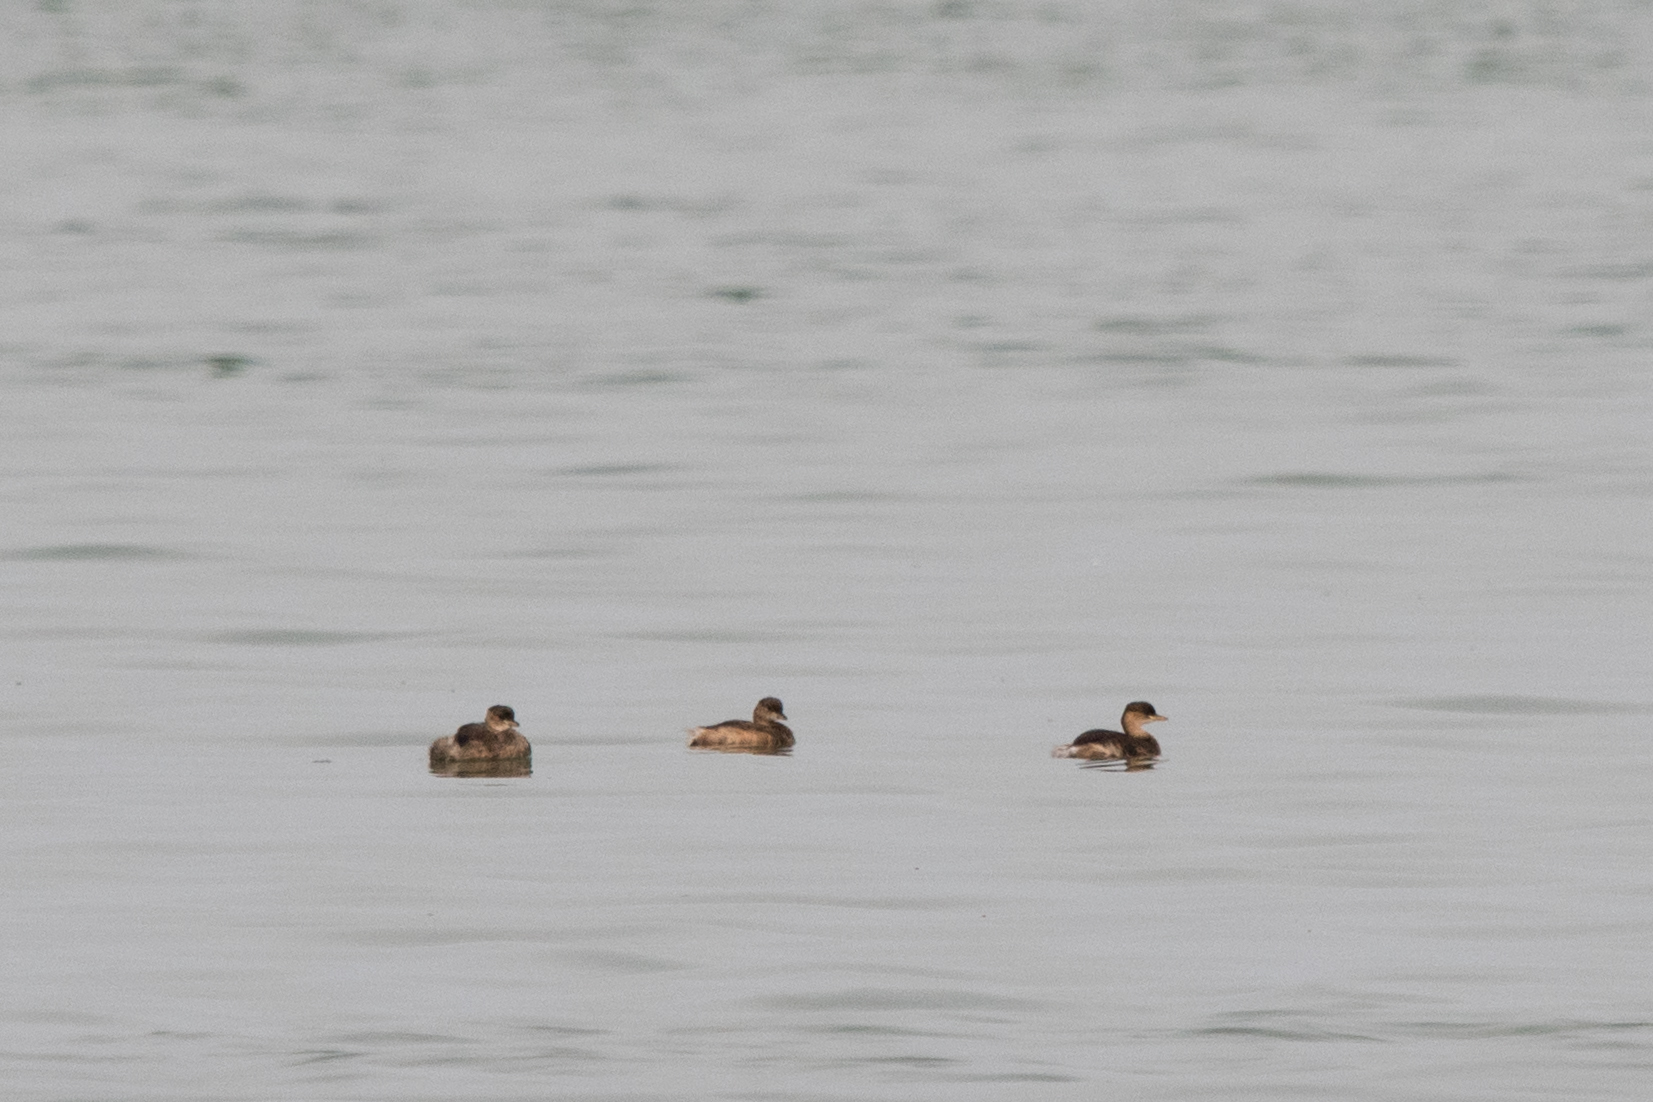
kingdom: Animalia
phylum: Chordata
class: Aves
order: Podicipediformes
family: Podicipedidae
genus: Tachybaptus
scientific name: Tachybaptus ruficollis
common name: Little grebe
